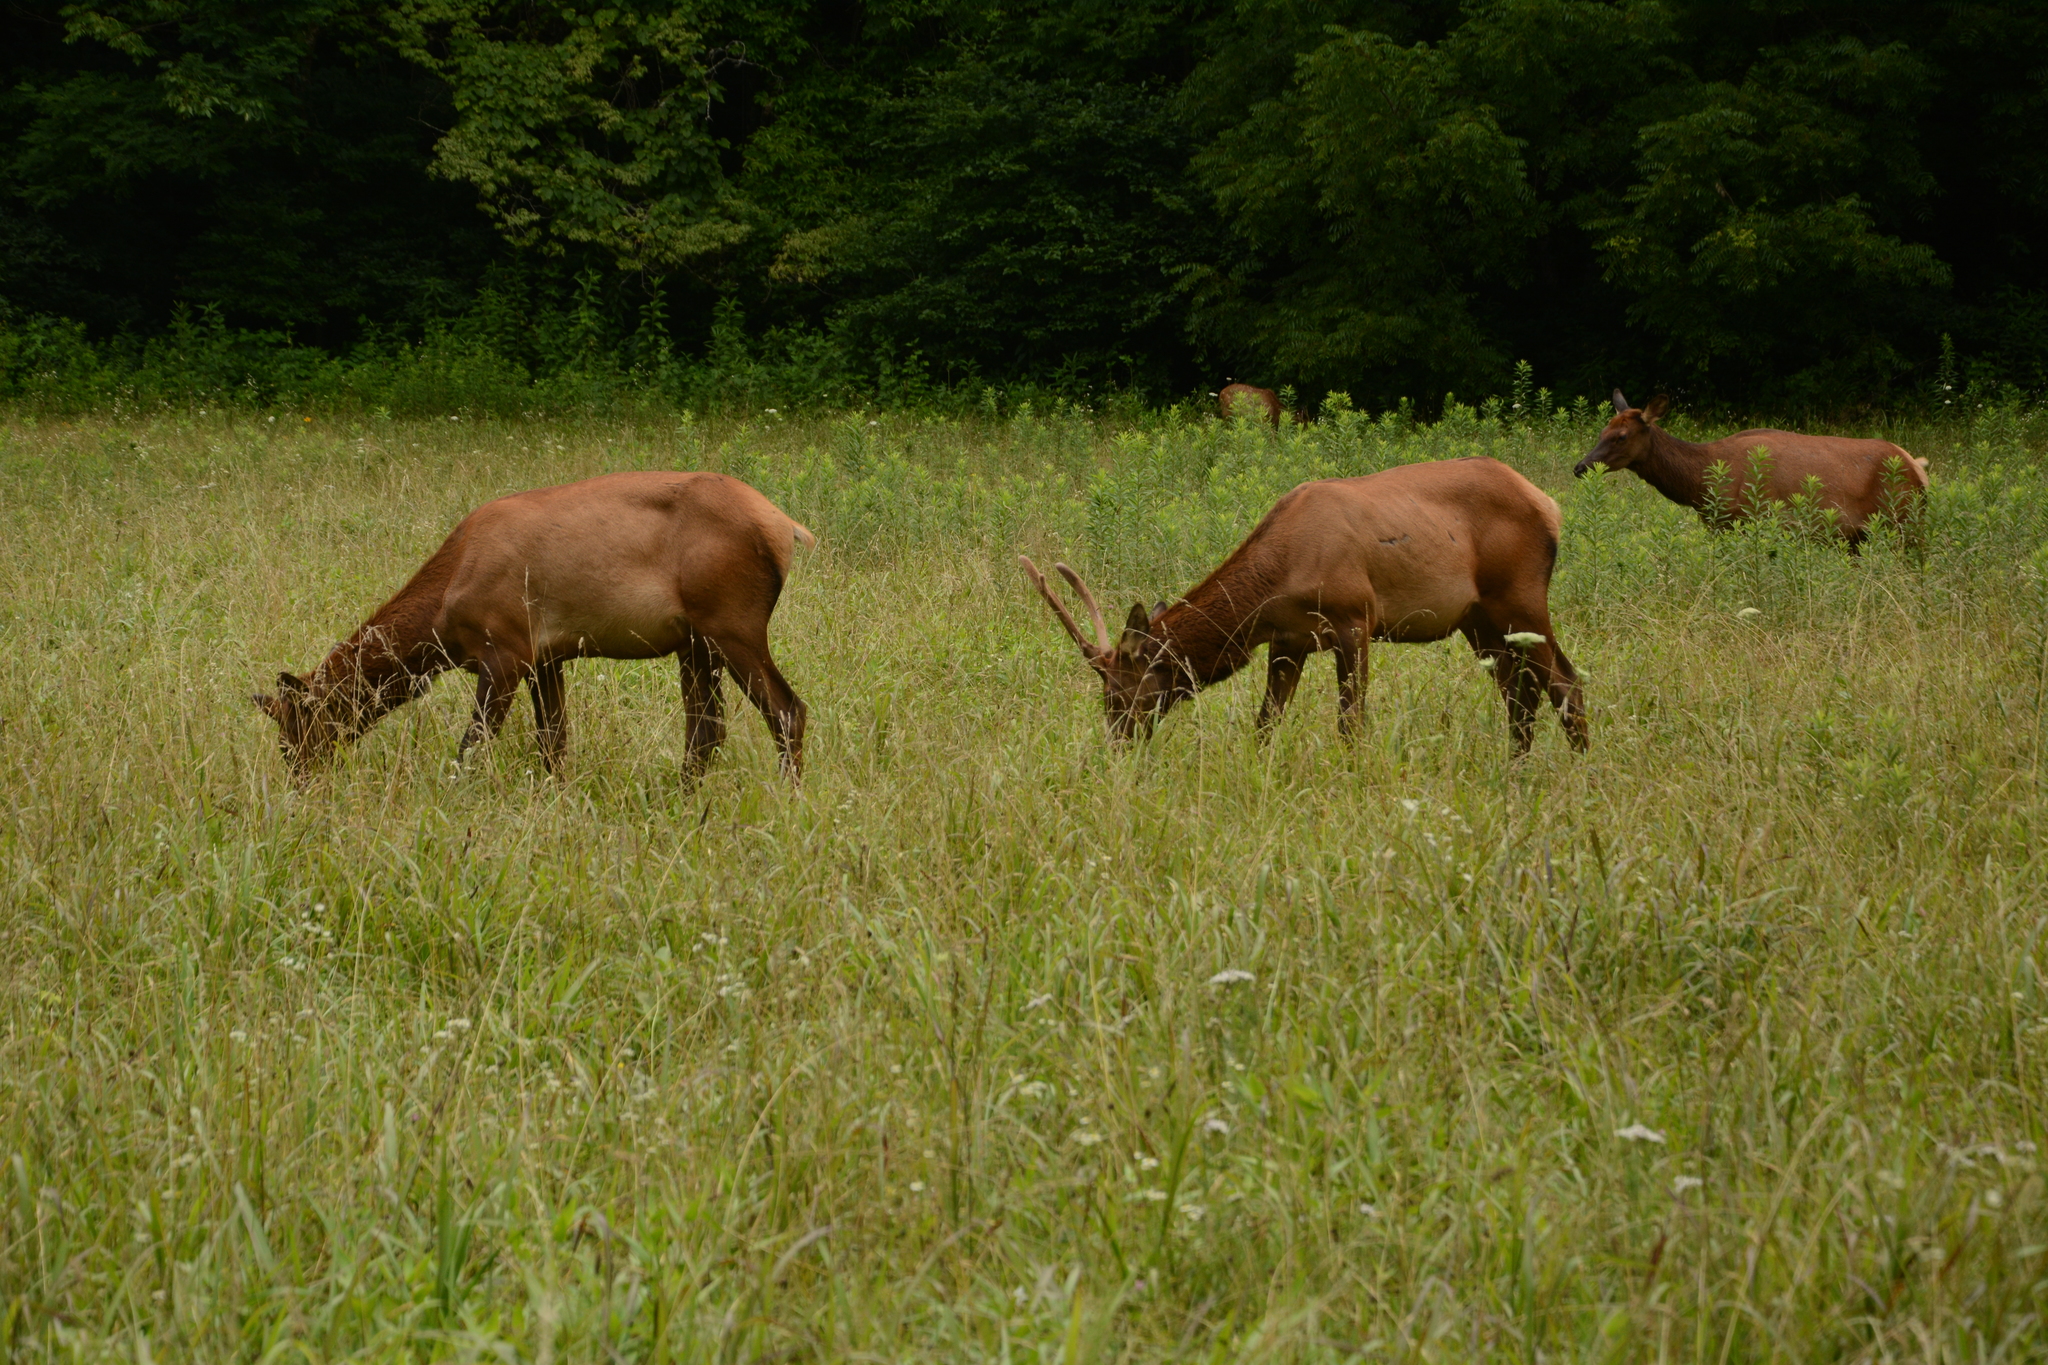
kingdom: Animalia
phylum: Chordata
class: Mammalia
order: Artiodactyla
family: Cervidae
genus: Cervus
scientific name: Cervus elaphus
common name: Red deer
